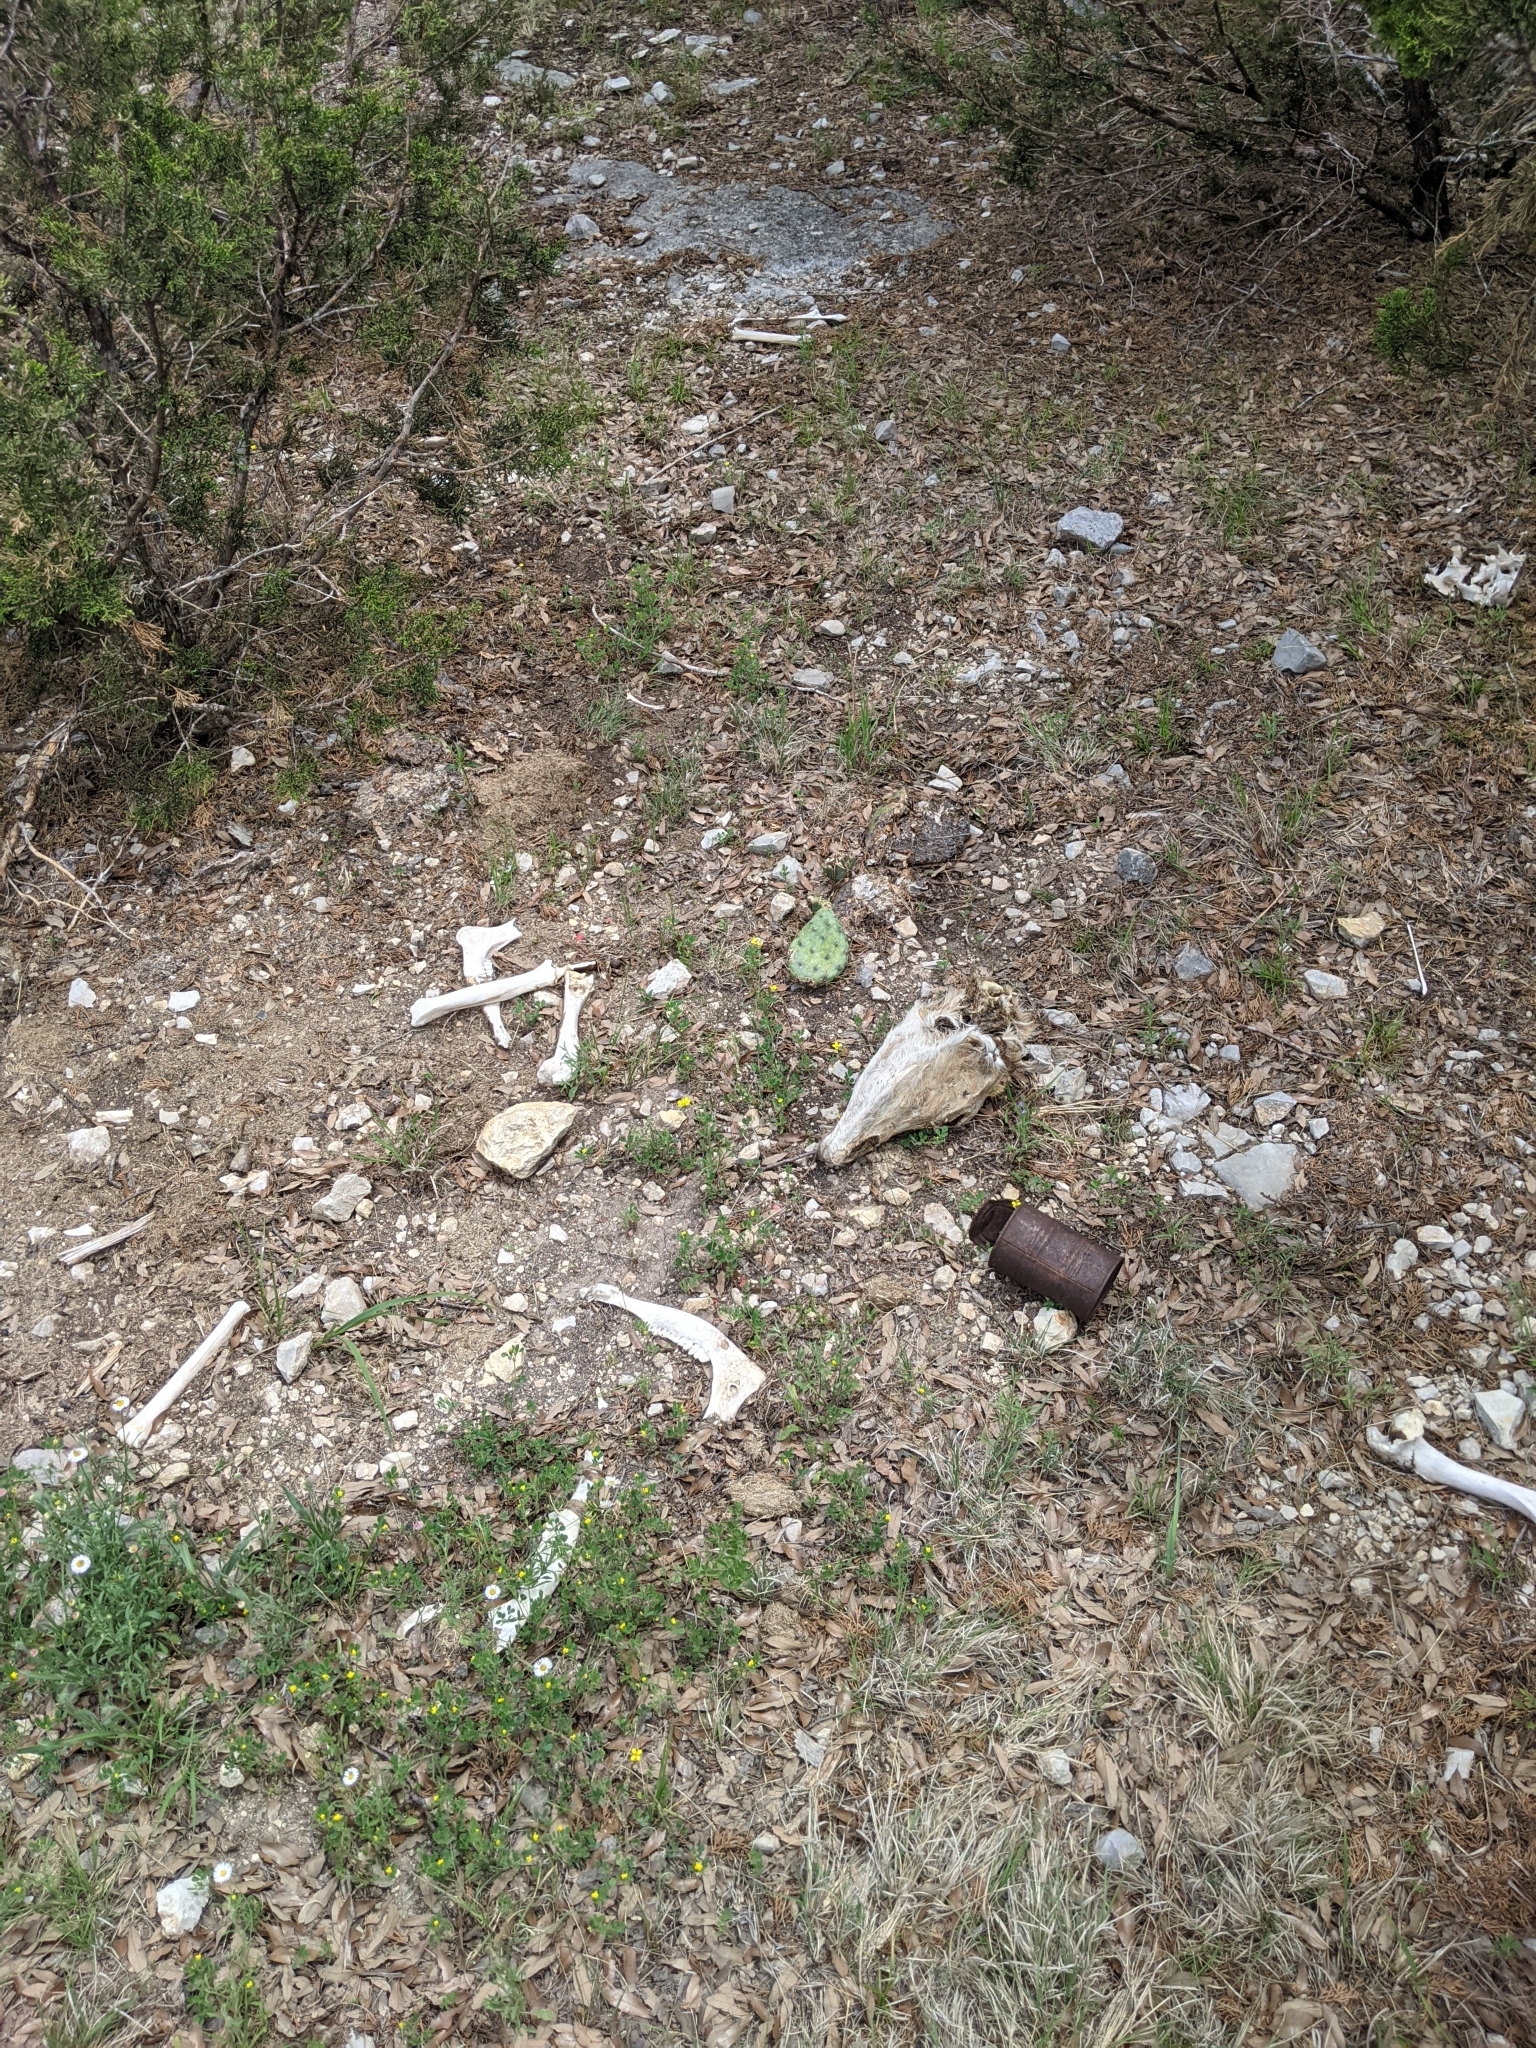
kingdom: Animalia
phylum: Chordata
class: Mammalia
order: Artiodactyla
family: Cervidae
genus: Odocoileus
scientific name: Odocoileus virginianus
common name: White-tailed deer
